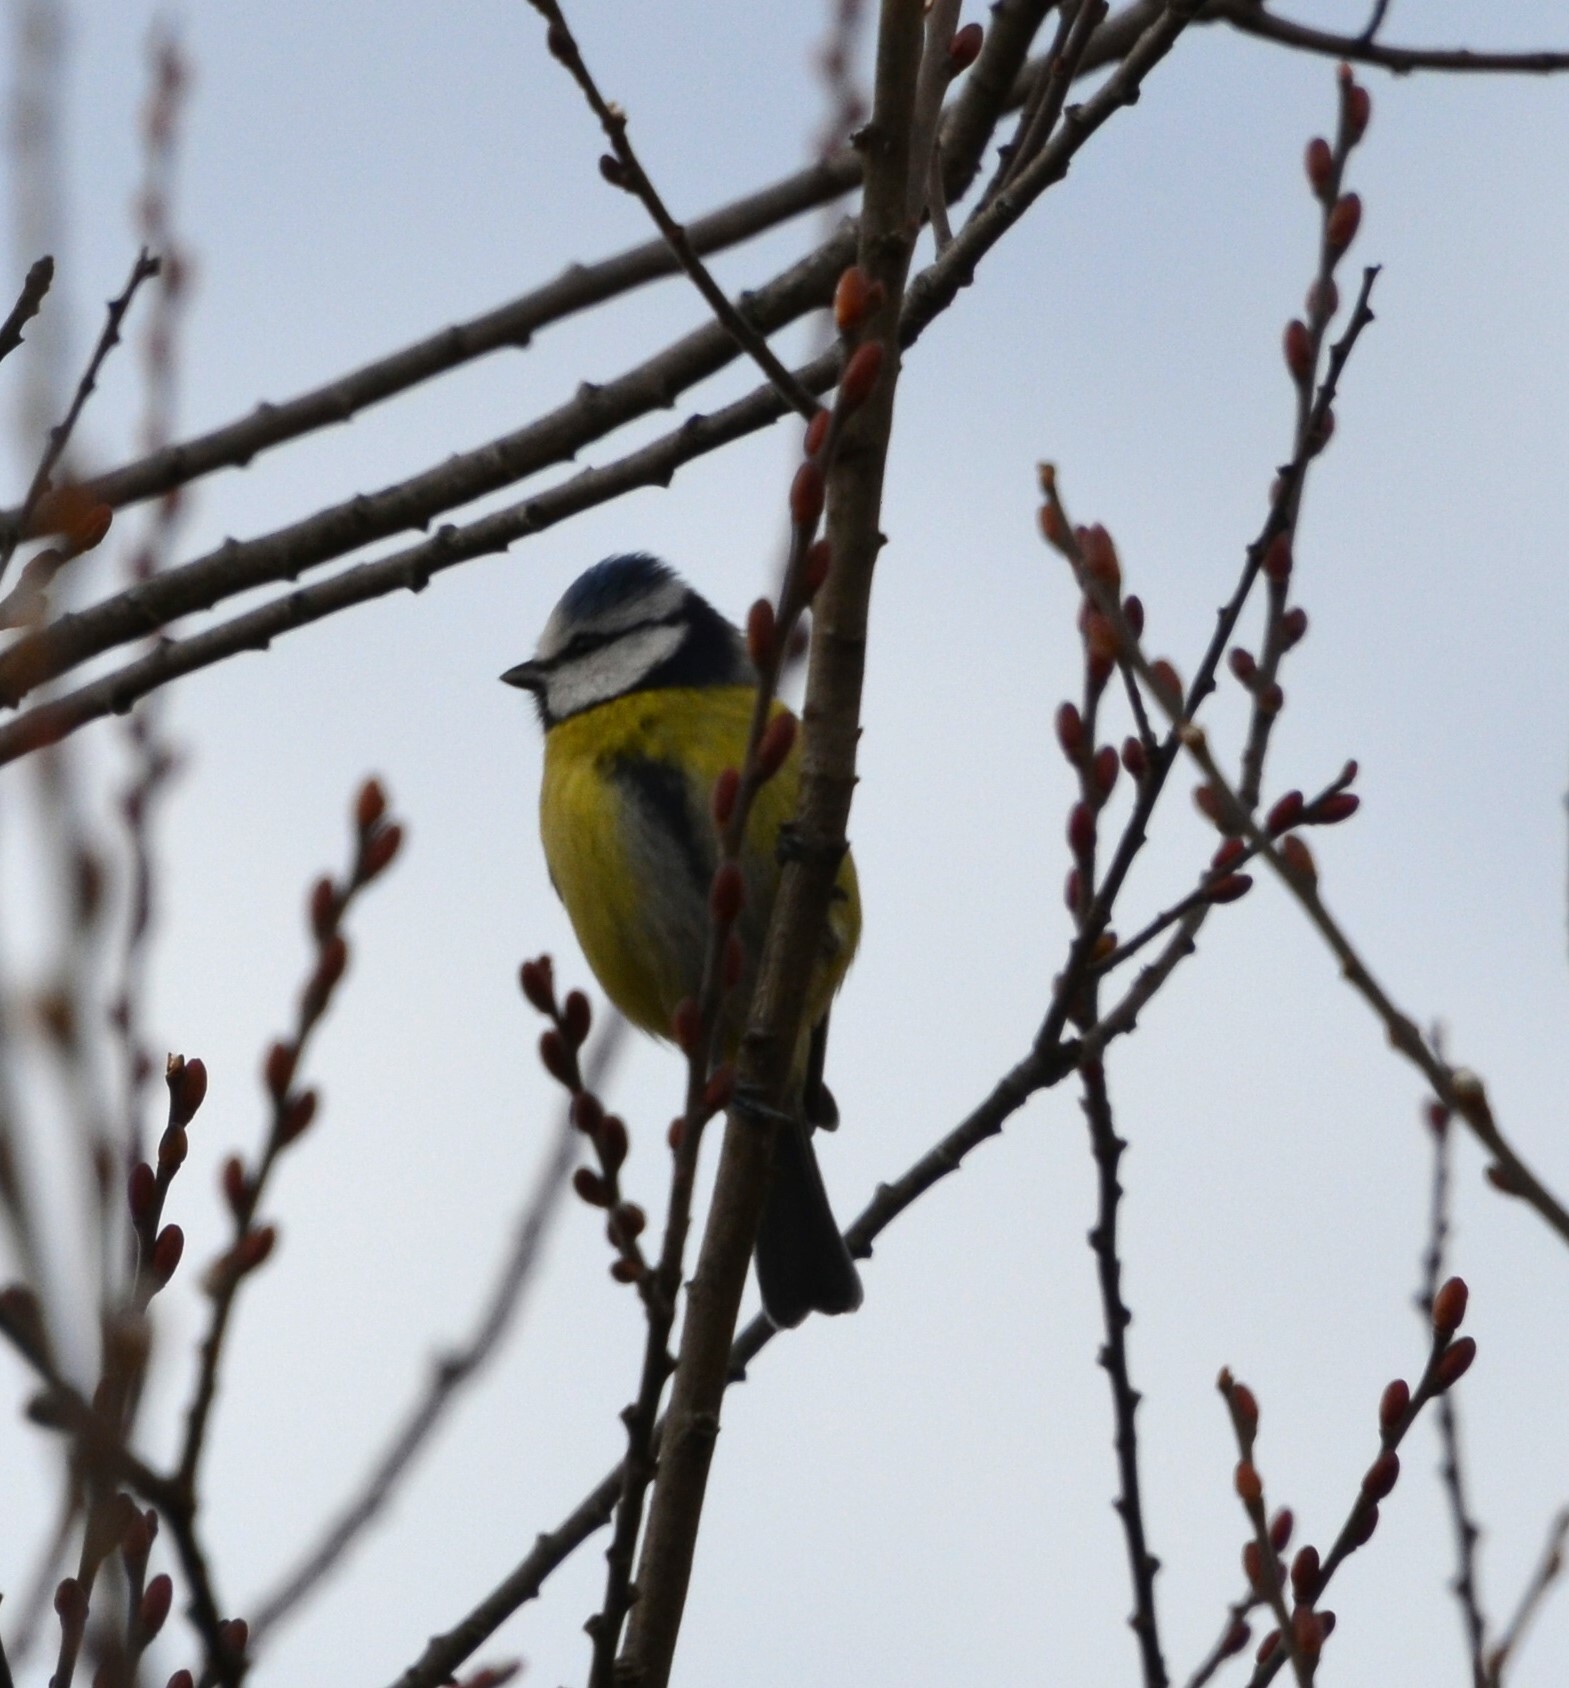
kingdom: Animalia
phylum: Chordata
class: Aves
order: Passeriformes
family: Paridae
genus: Cyanistes
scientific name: Cyanistes caeruleus
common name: Eurasian blue tit
